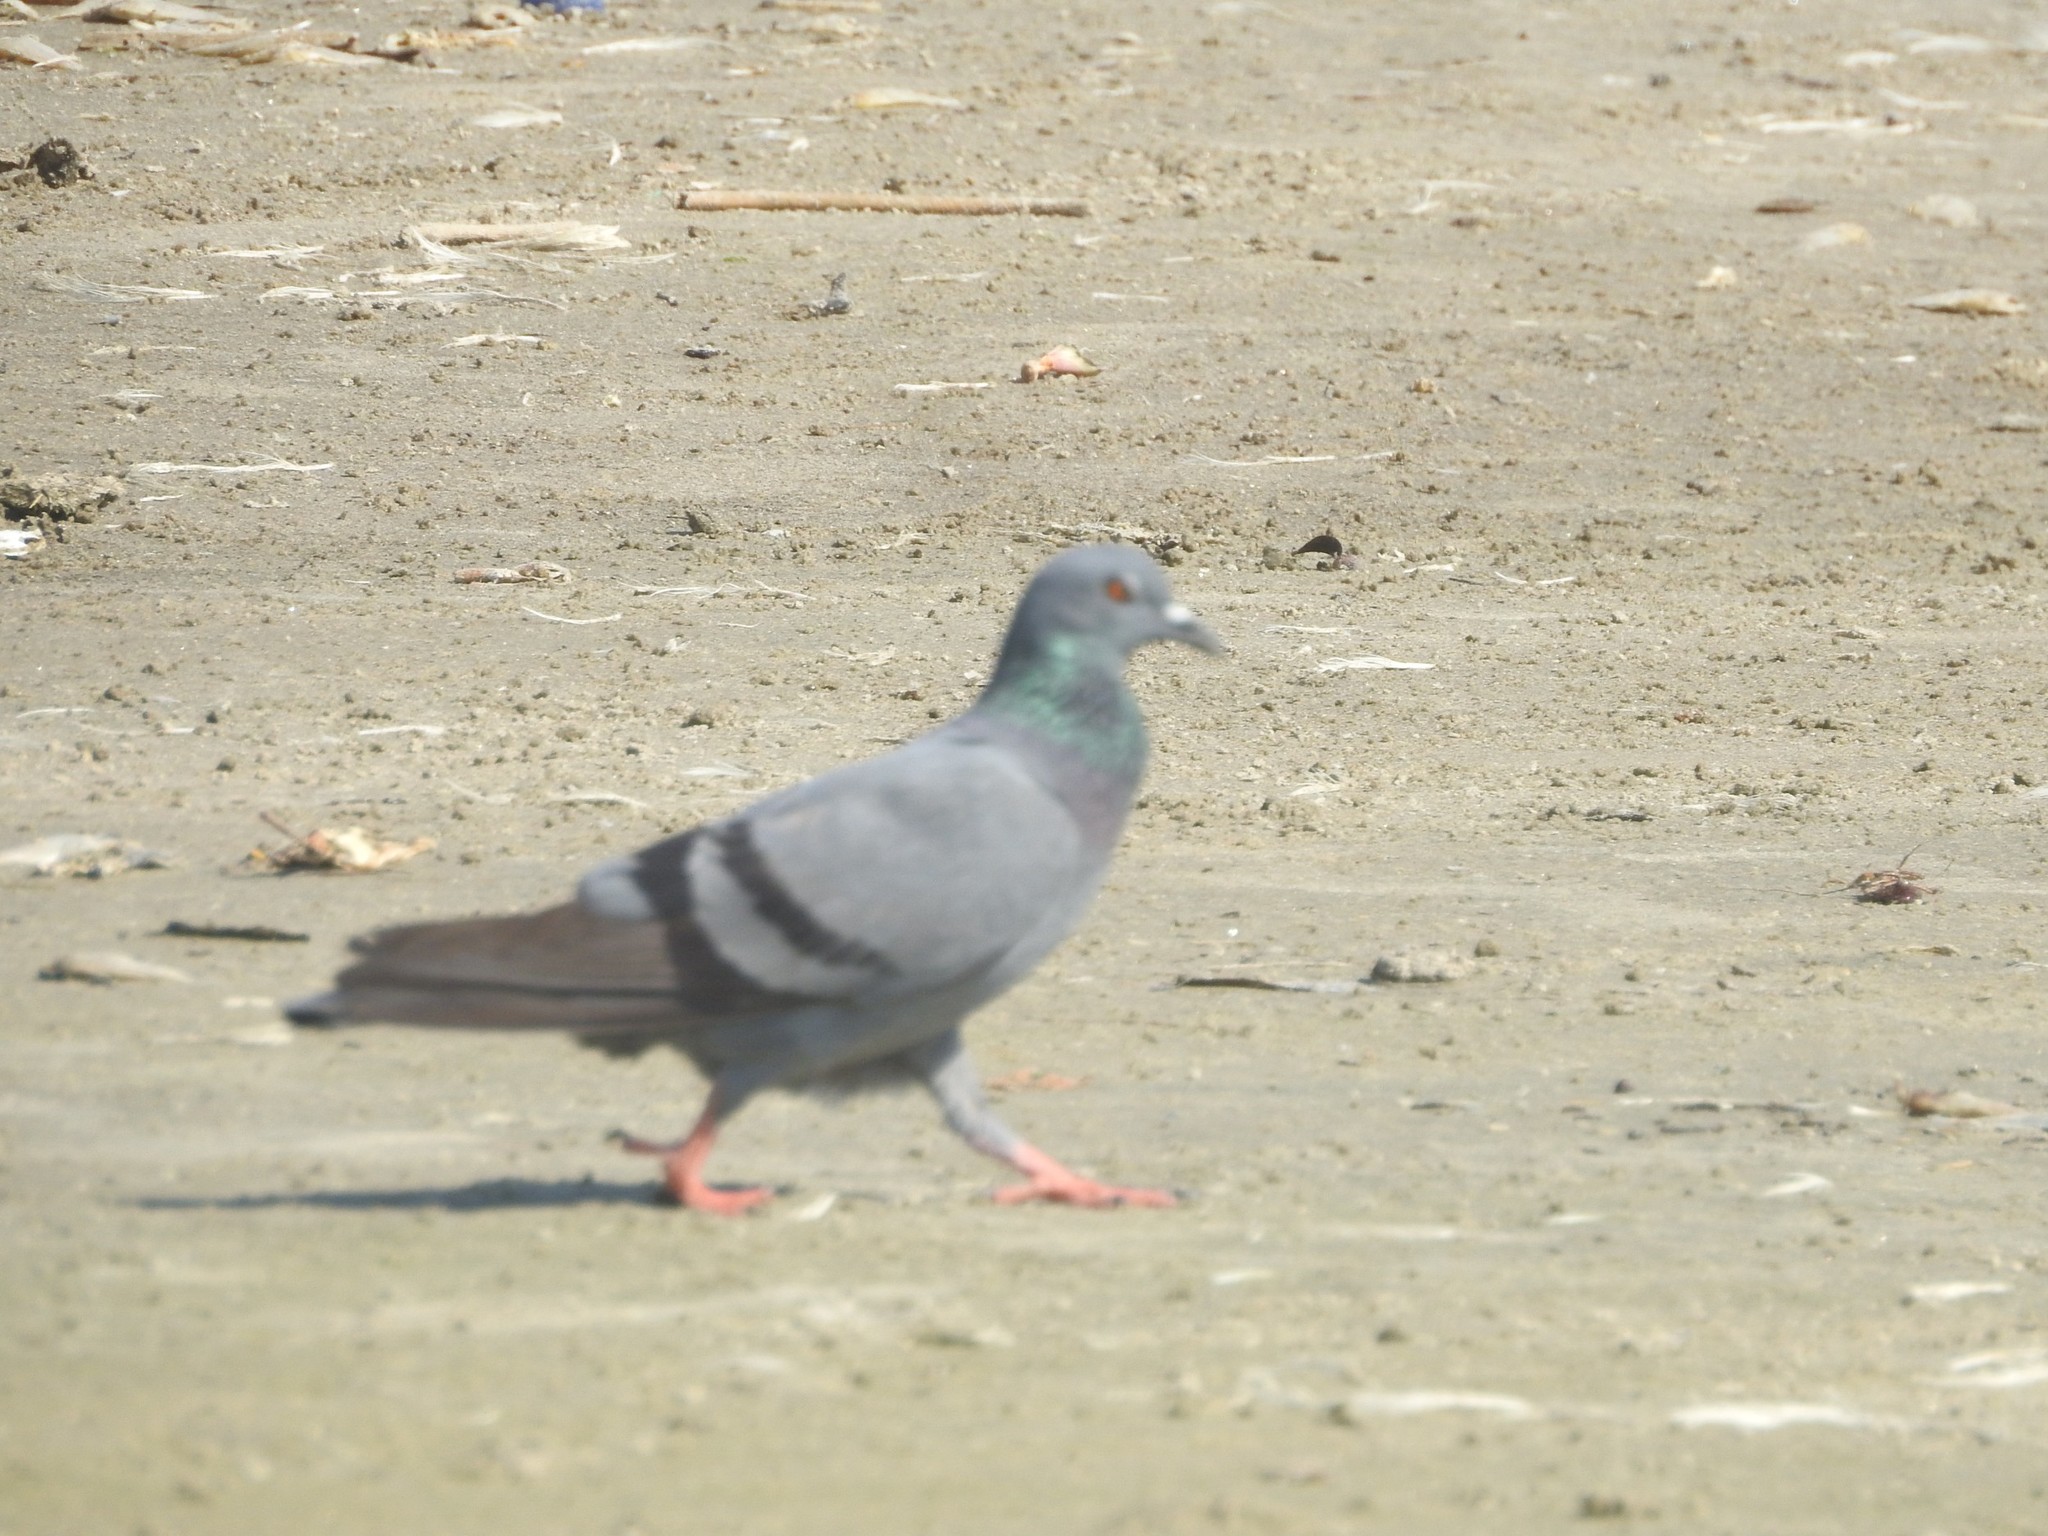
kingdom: Animalia
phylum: Chordata
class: Aves
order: Columbiformes
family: Columbidae
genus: Columba
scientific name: Columba livia
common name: Rock pigeon
